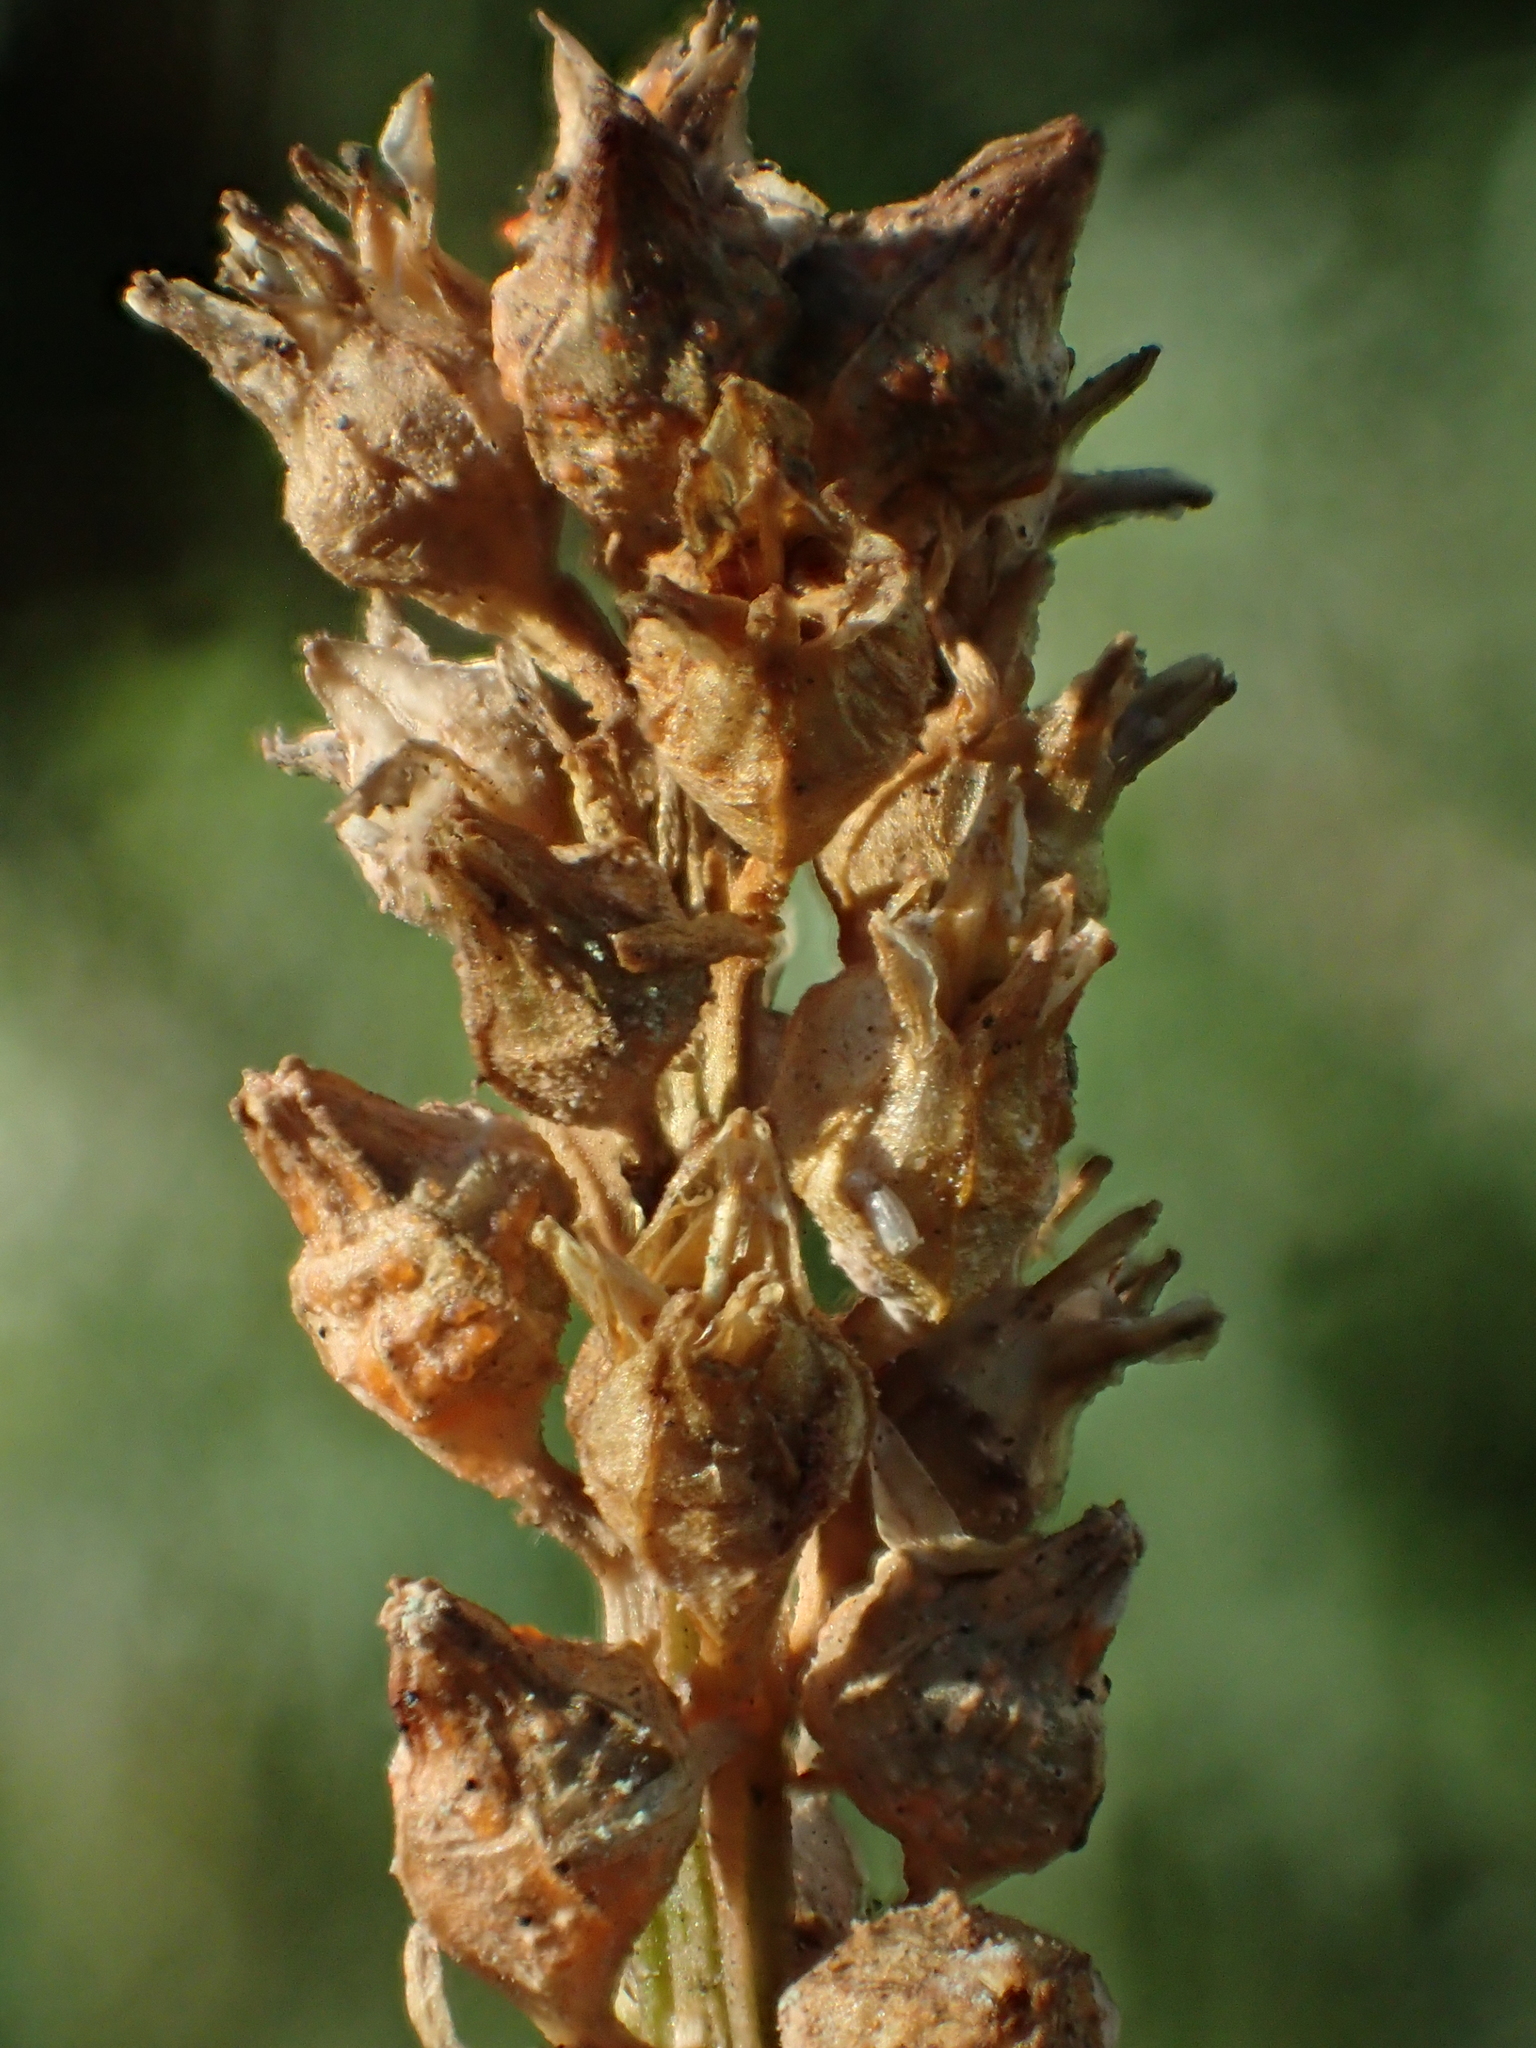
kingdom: Plantae
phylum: Tracheophyta
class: Liliopsida
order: Dioscoreales
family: Nartheciaceae
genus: Aletris
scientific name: Aletris glabra
